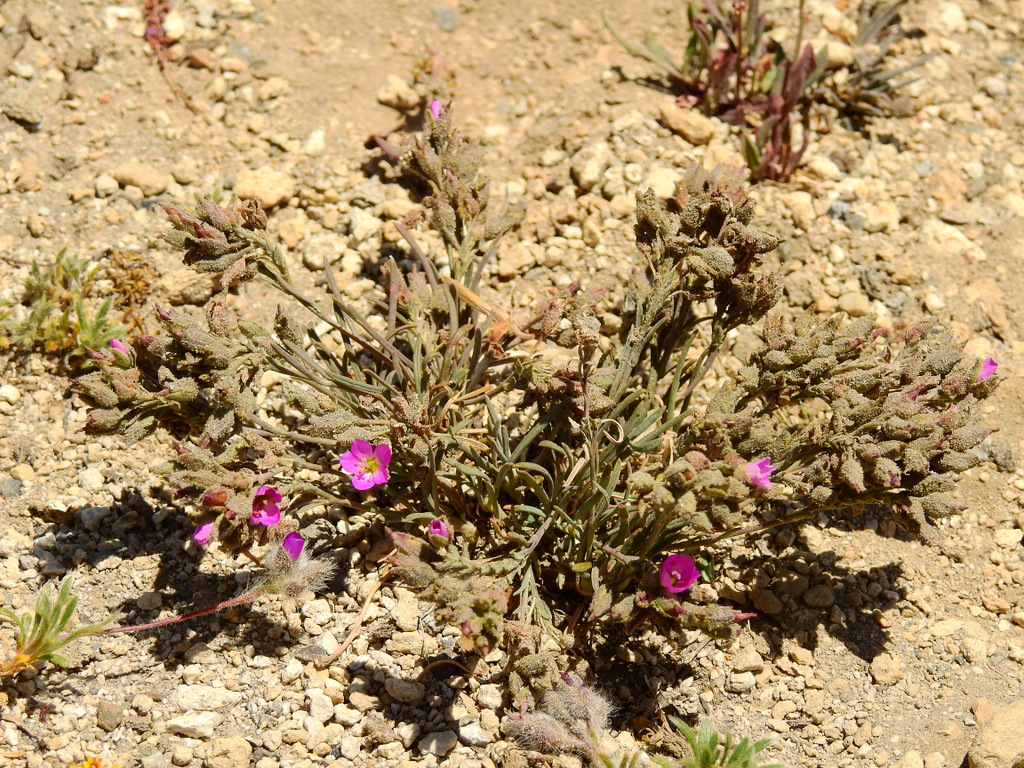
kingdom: Plantae
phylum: Tracheophyta
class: Magnoliopsida
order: Caryophyllales
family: Montiaceae
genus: Montiopsis
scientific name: Montiopsis gayana
